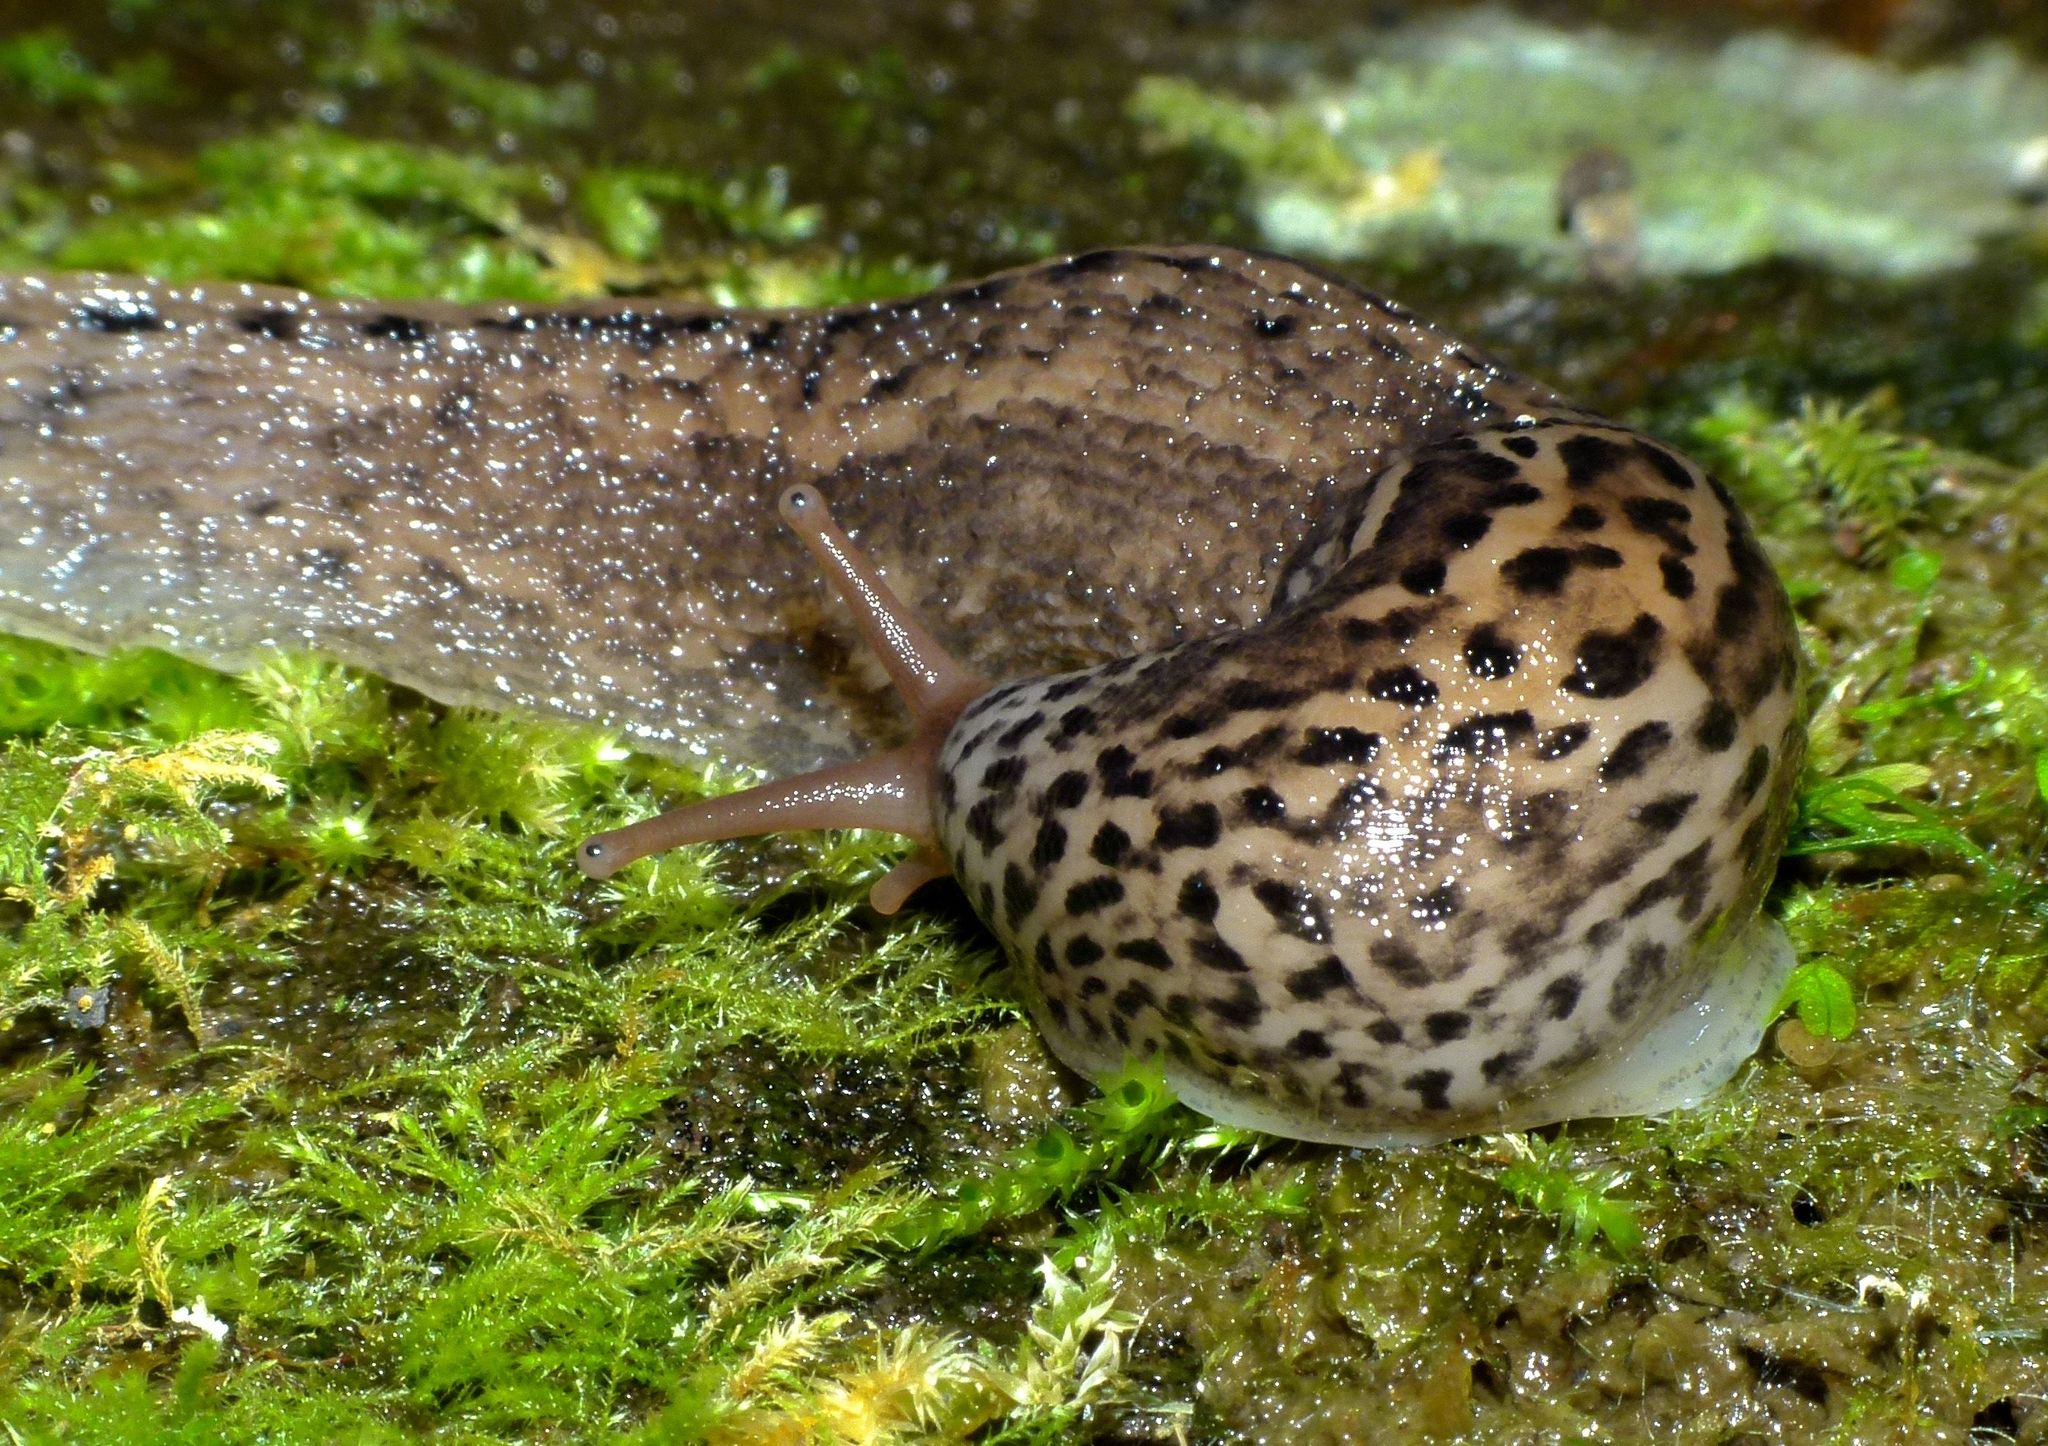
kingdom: Animalia
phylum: Mollusca
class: Gastropoda
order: Stylommatophora
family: Limacidae
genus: Limax
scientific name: Limax maximus
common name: Great grey slug
